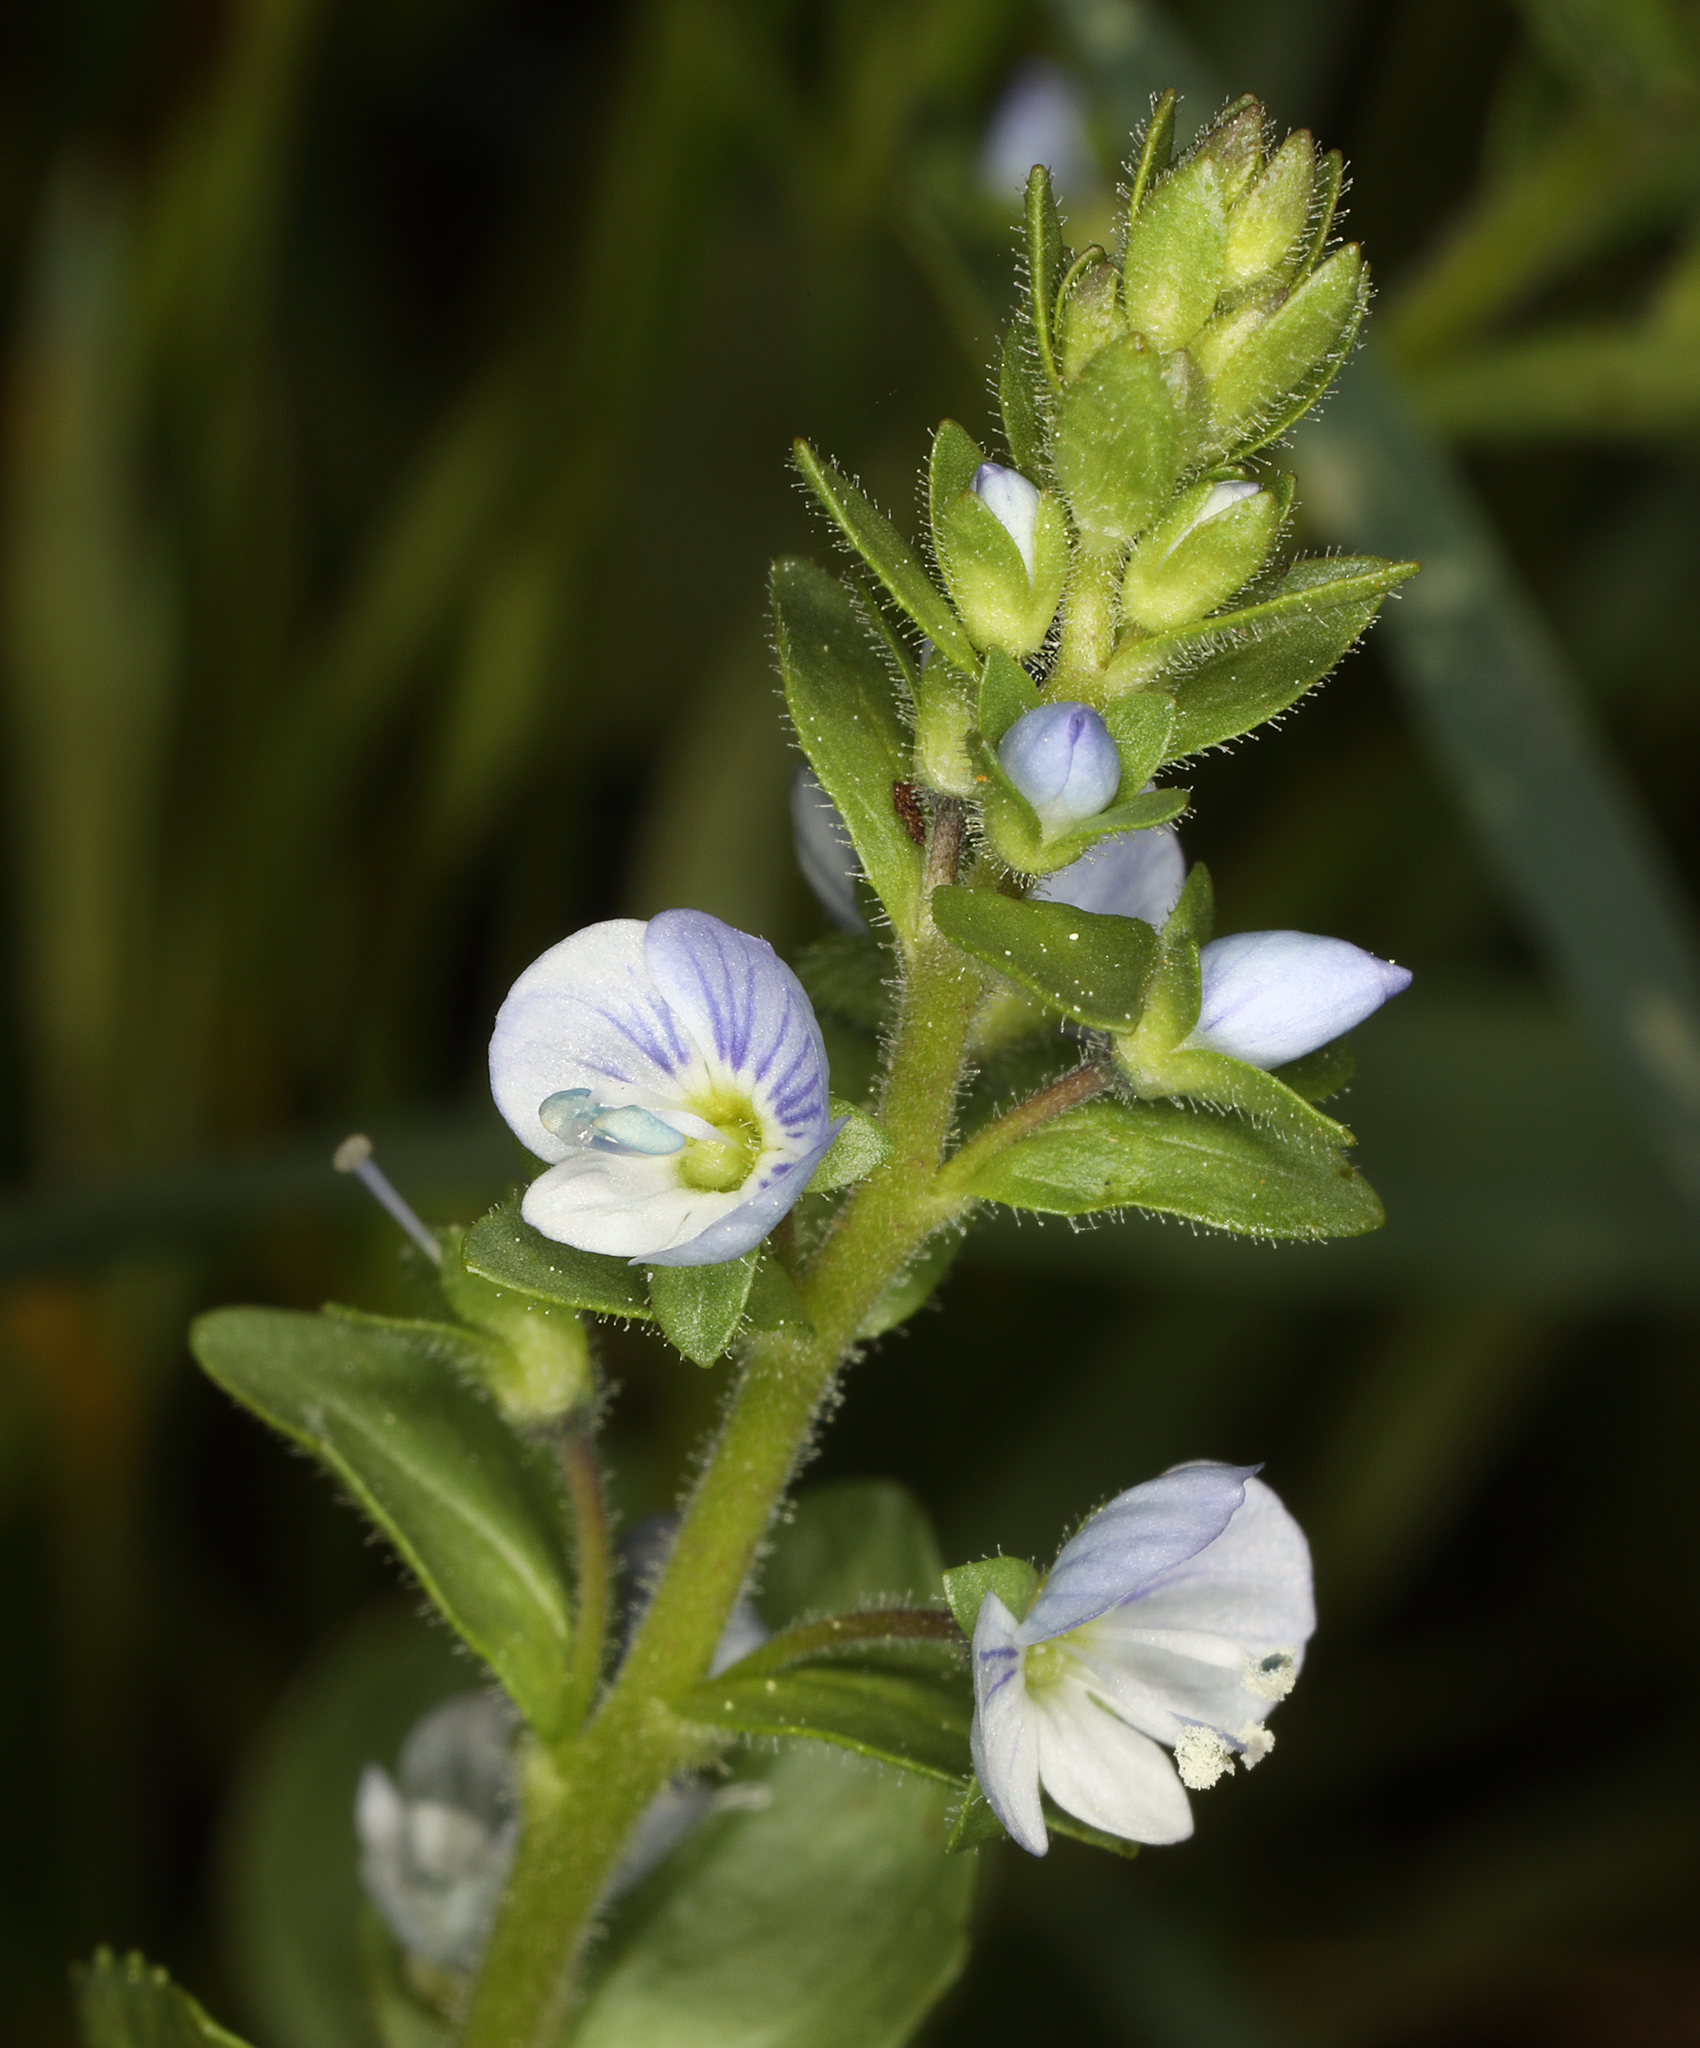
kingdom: Plantae
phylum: Tracheophyta
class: Magnoliopsida
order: Lamiales
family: Plantaginaceae
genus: Veronica
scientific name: Veronica serpyllifolia
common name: Thyme-leaved speedwell
